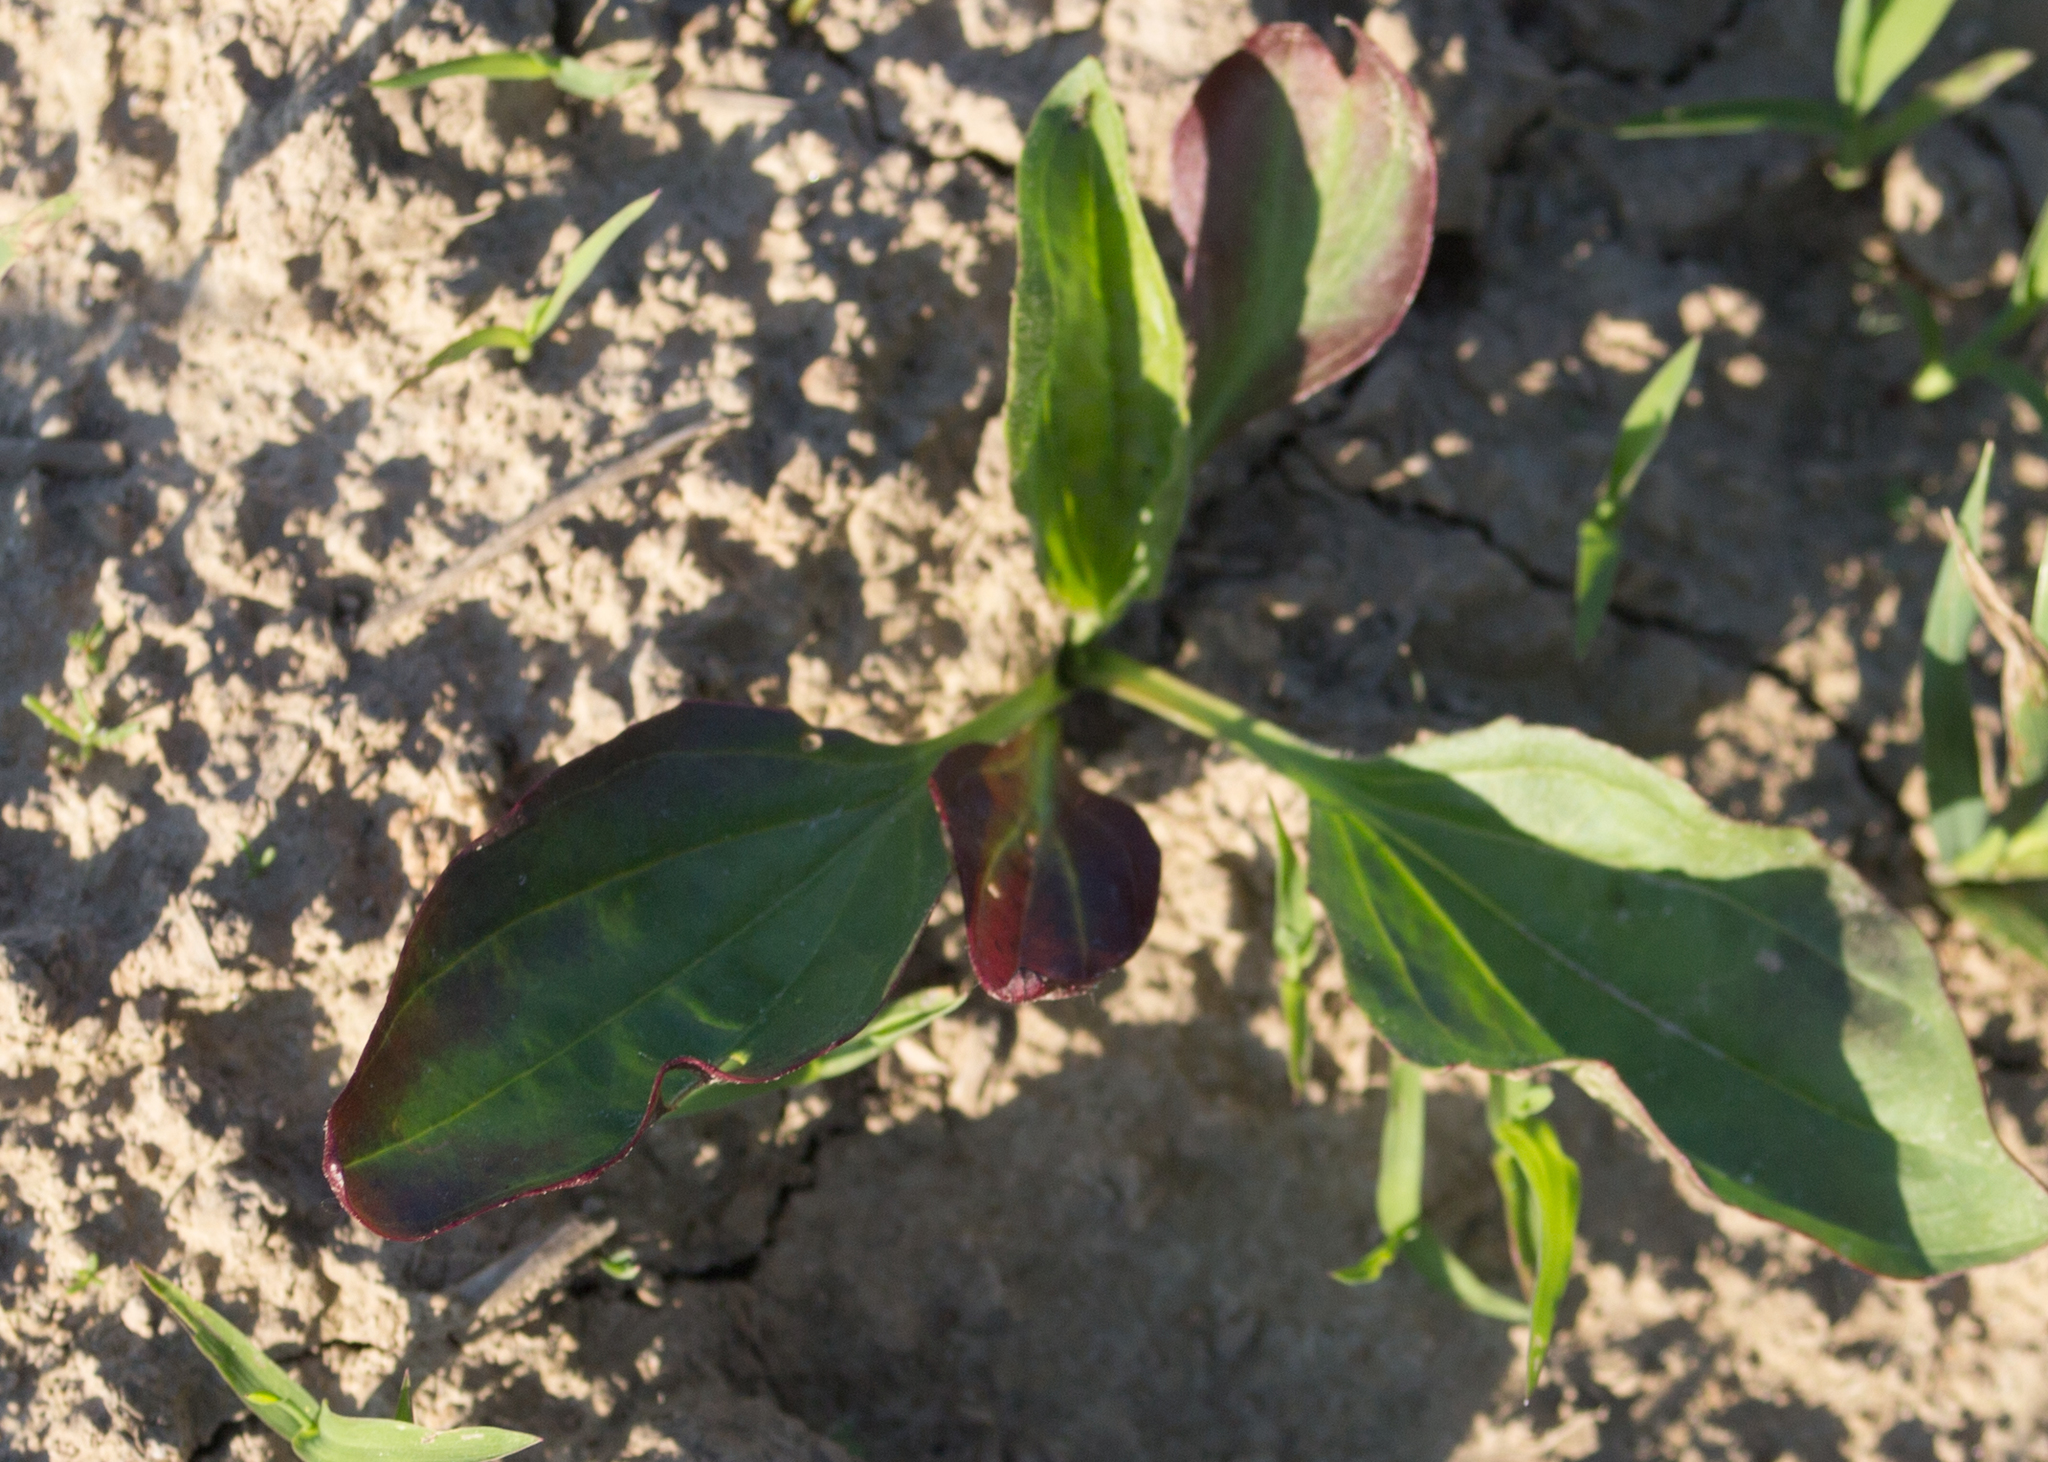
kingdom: Plantae
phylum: Tracheophyta
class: Magnoliopsida
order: Lamiales
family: Plantaginaceae
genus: Plantago
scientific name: Plantago major
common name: Common plantain
